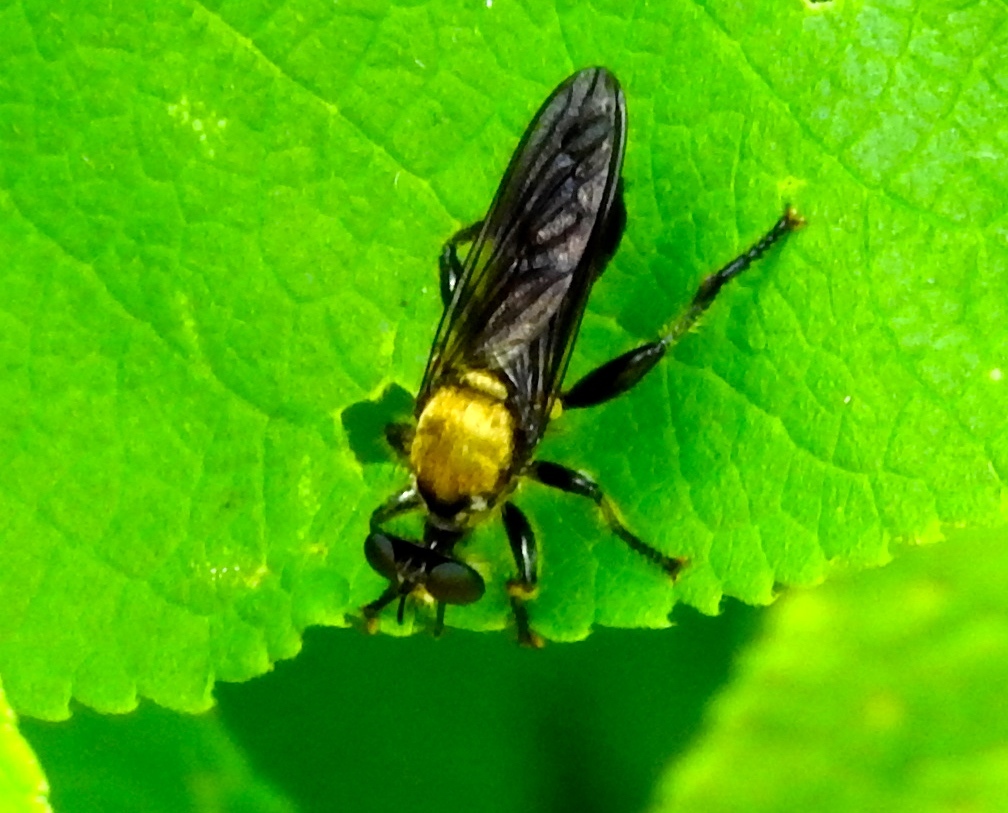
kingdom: Animalia
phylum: Arthropoda
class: Insecta
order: Diptera
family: Asilidae
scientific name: Asilidae
